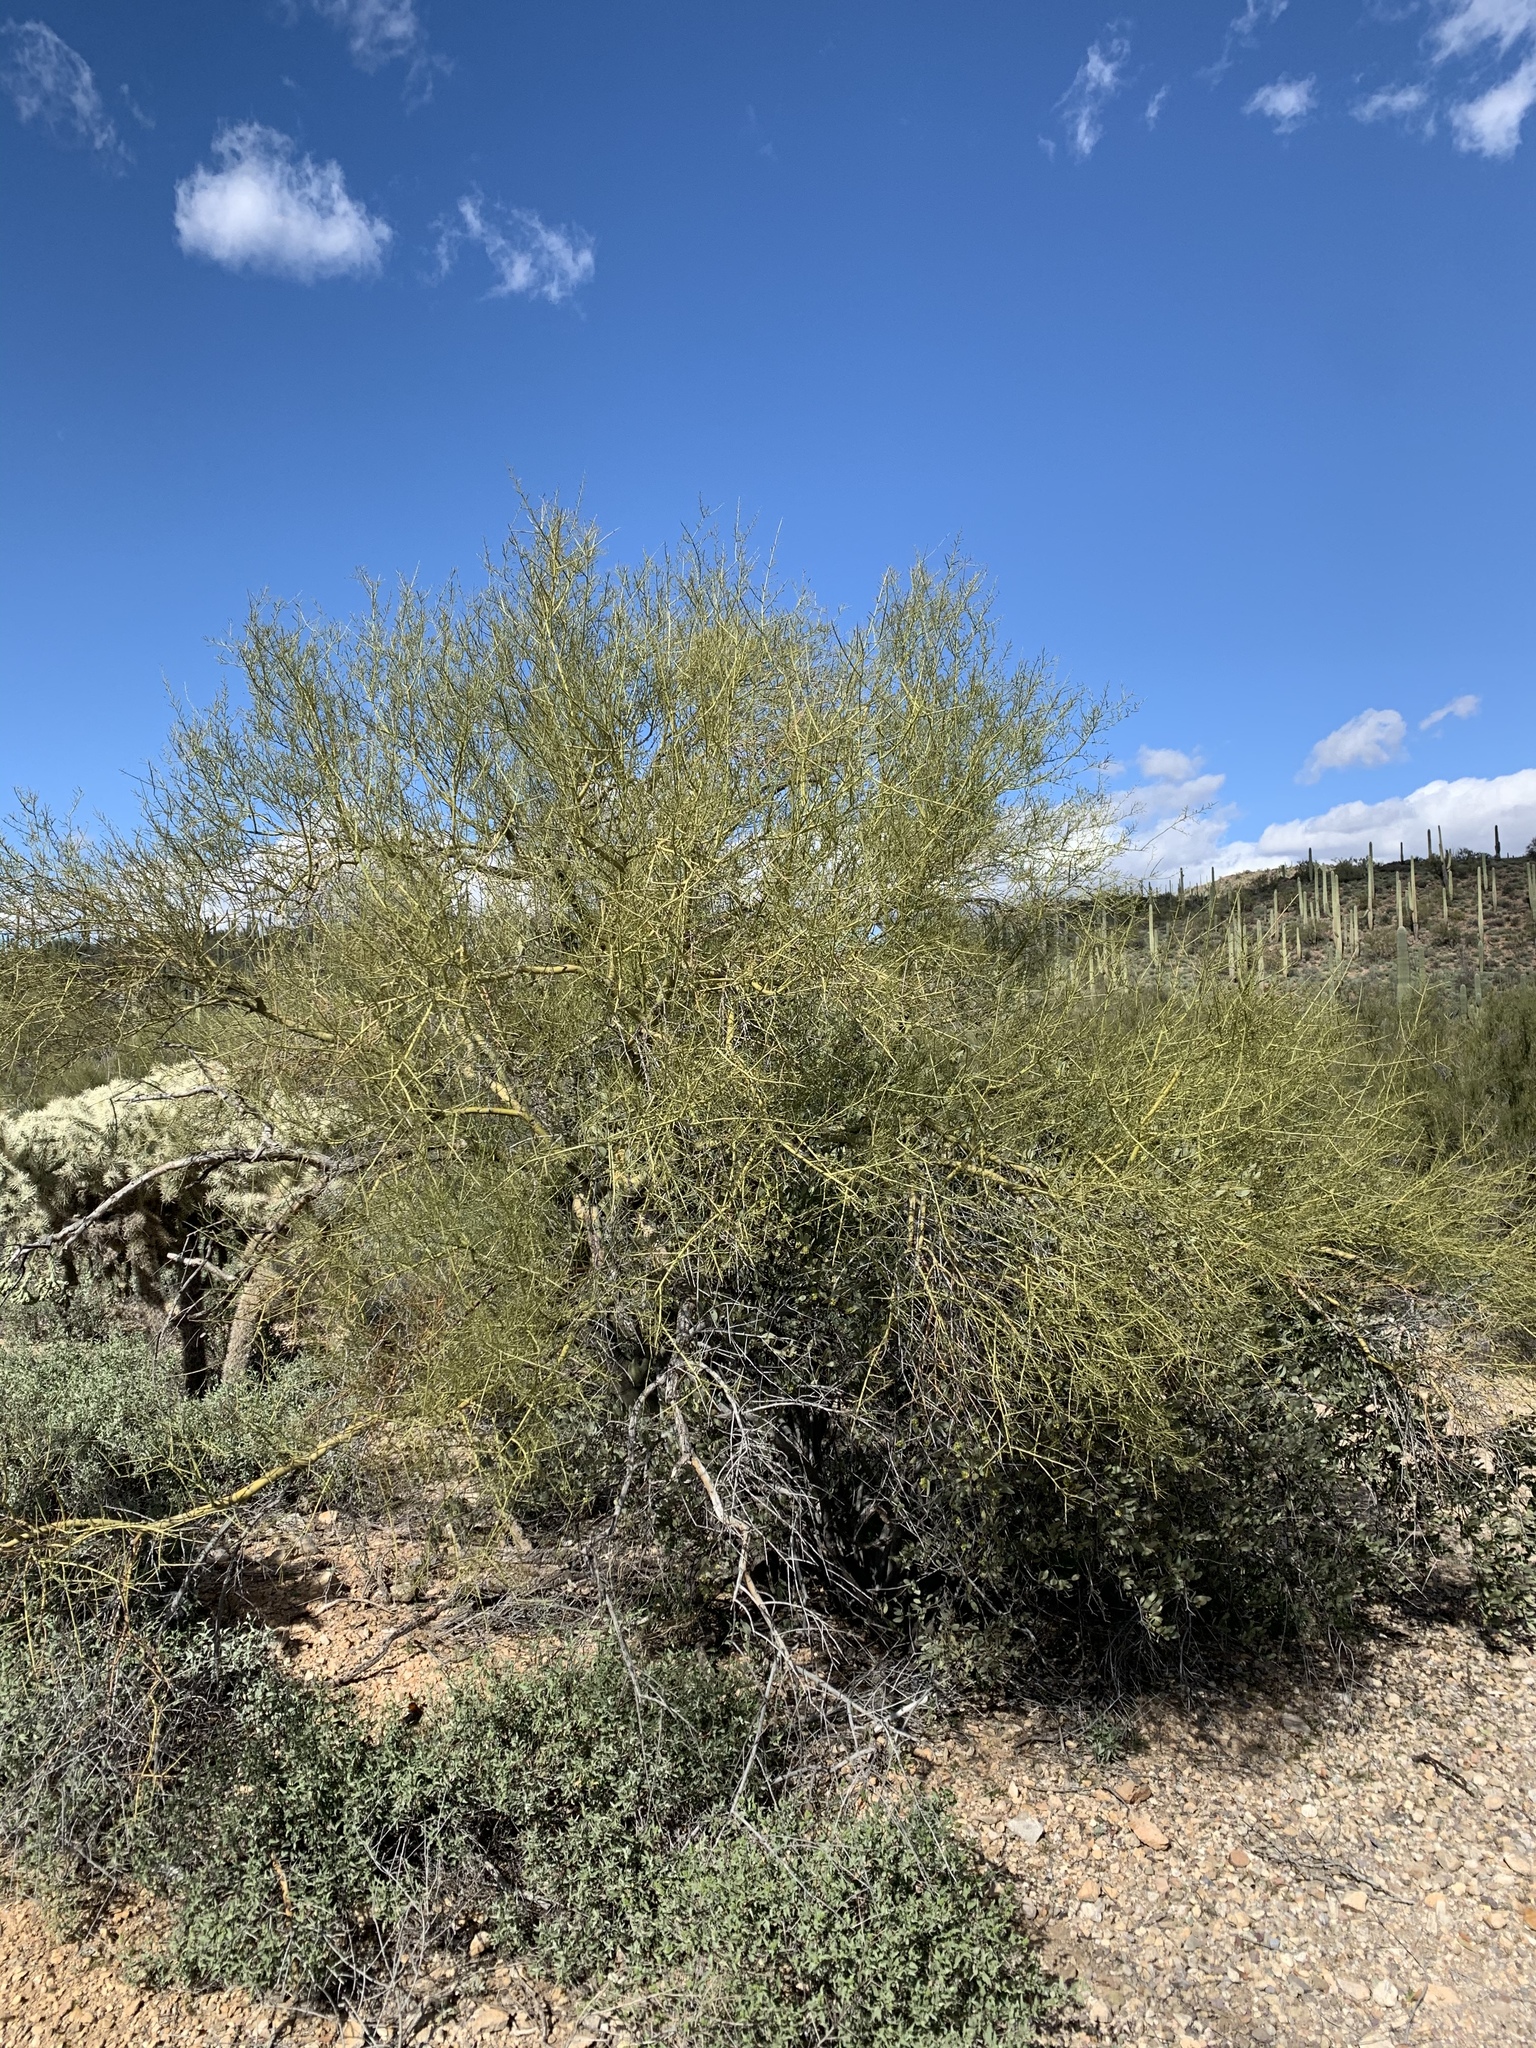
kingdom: Plantae
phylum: Tracheophyta
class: Magnoliopsida
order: Fabales
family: Fabaceae
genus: Parkinsonia
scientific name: Parkinsonia microphylla
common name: Yellow paloverde
